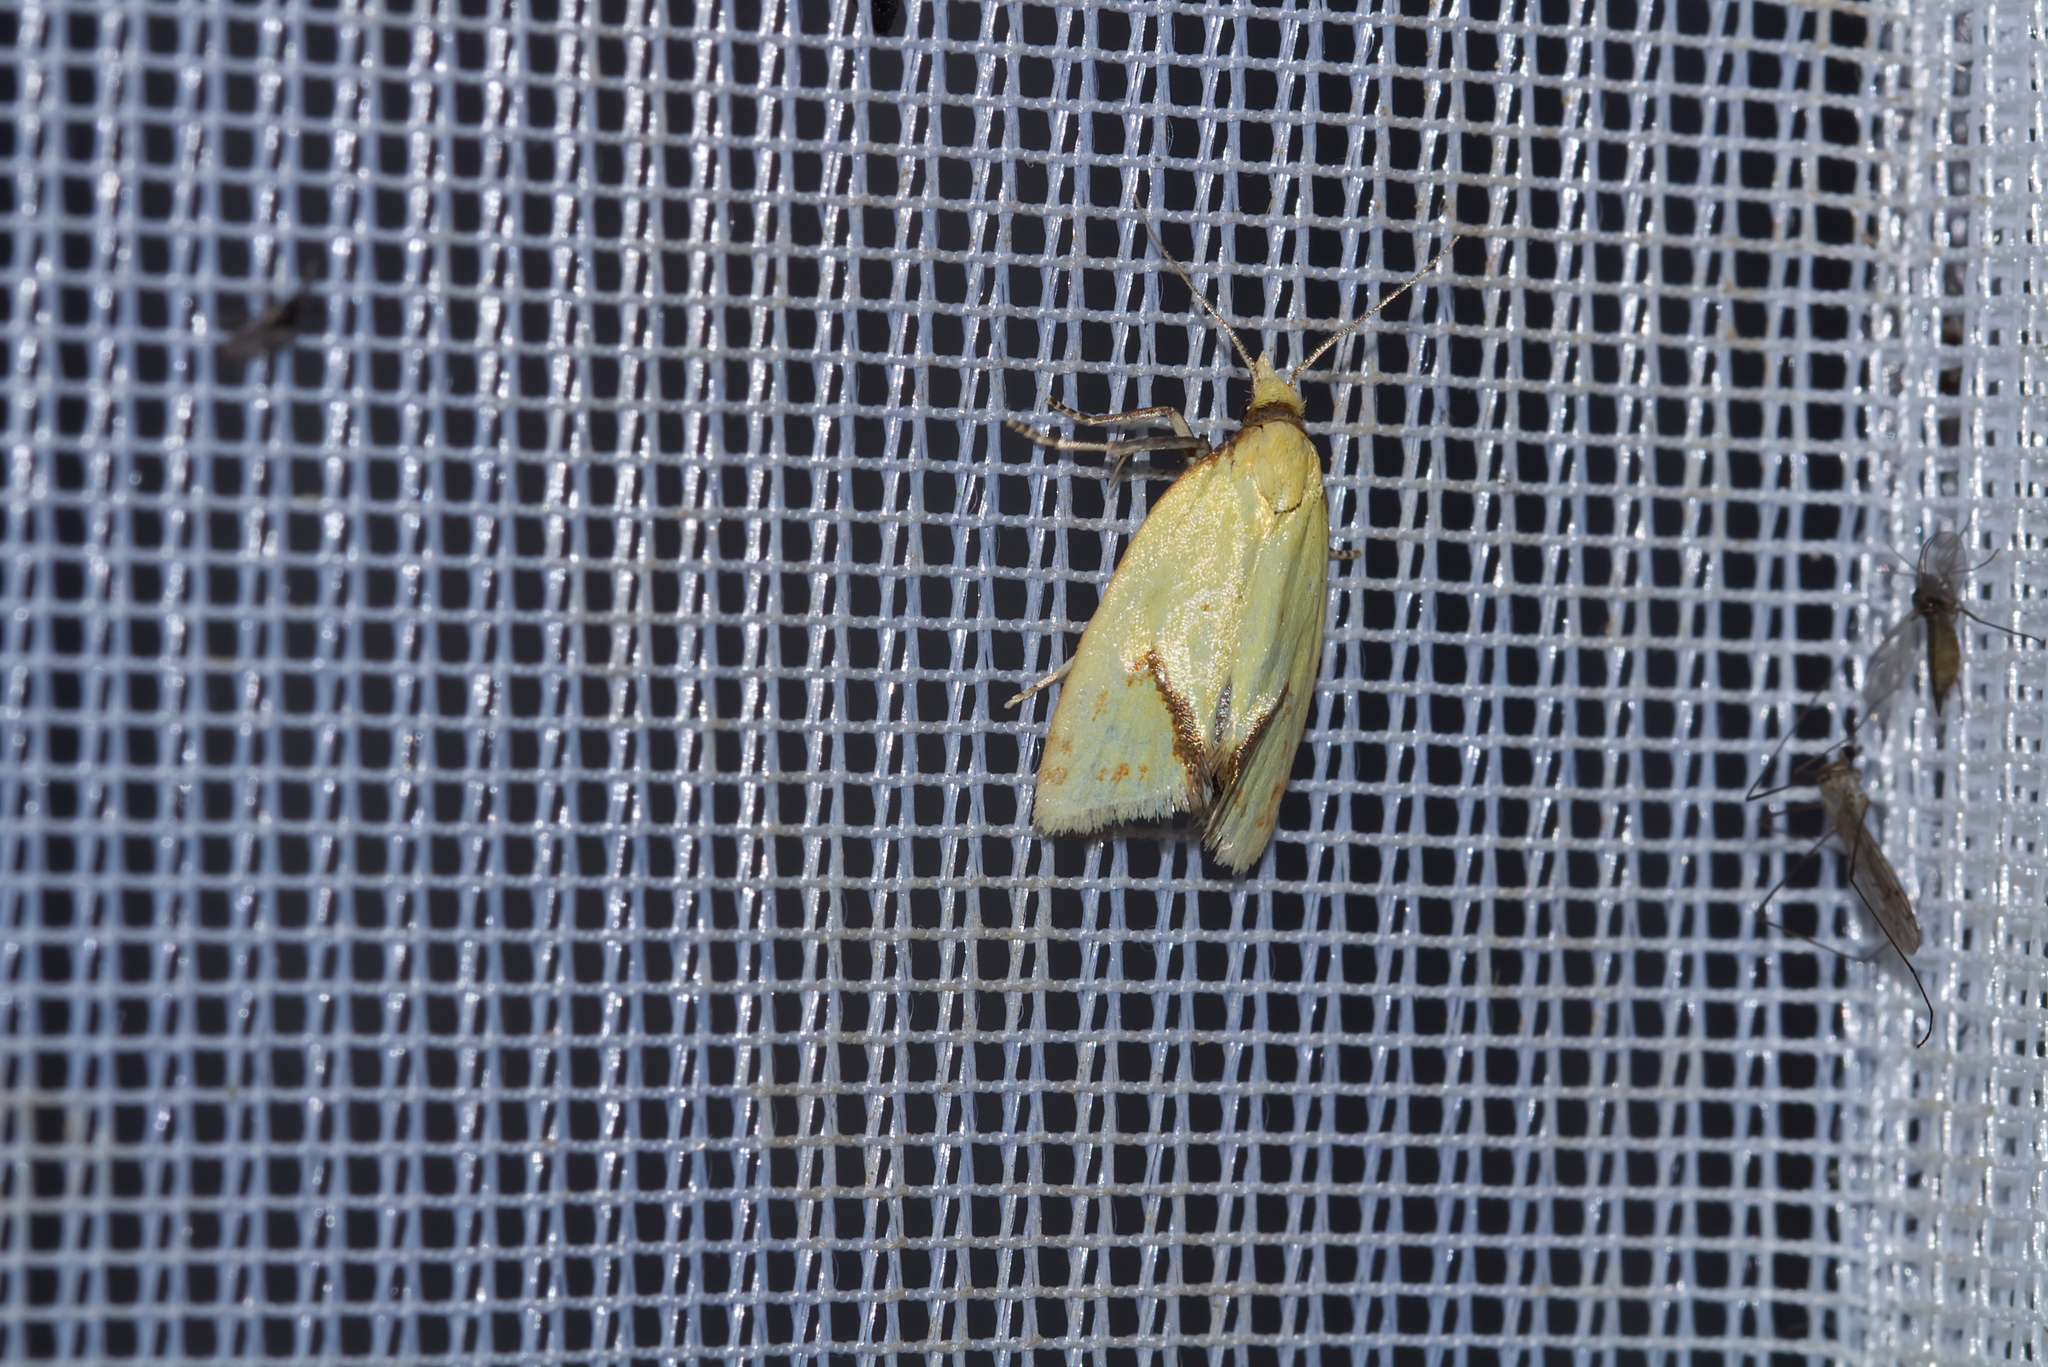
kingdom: Animalia
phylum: Arthropoda
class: Insecta
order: Lepidoptera
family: Tortricidae
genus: Agapeta
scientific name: Agapeta hamana
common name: Common yellow conch
